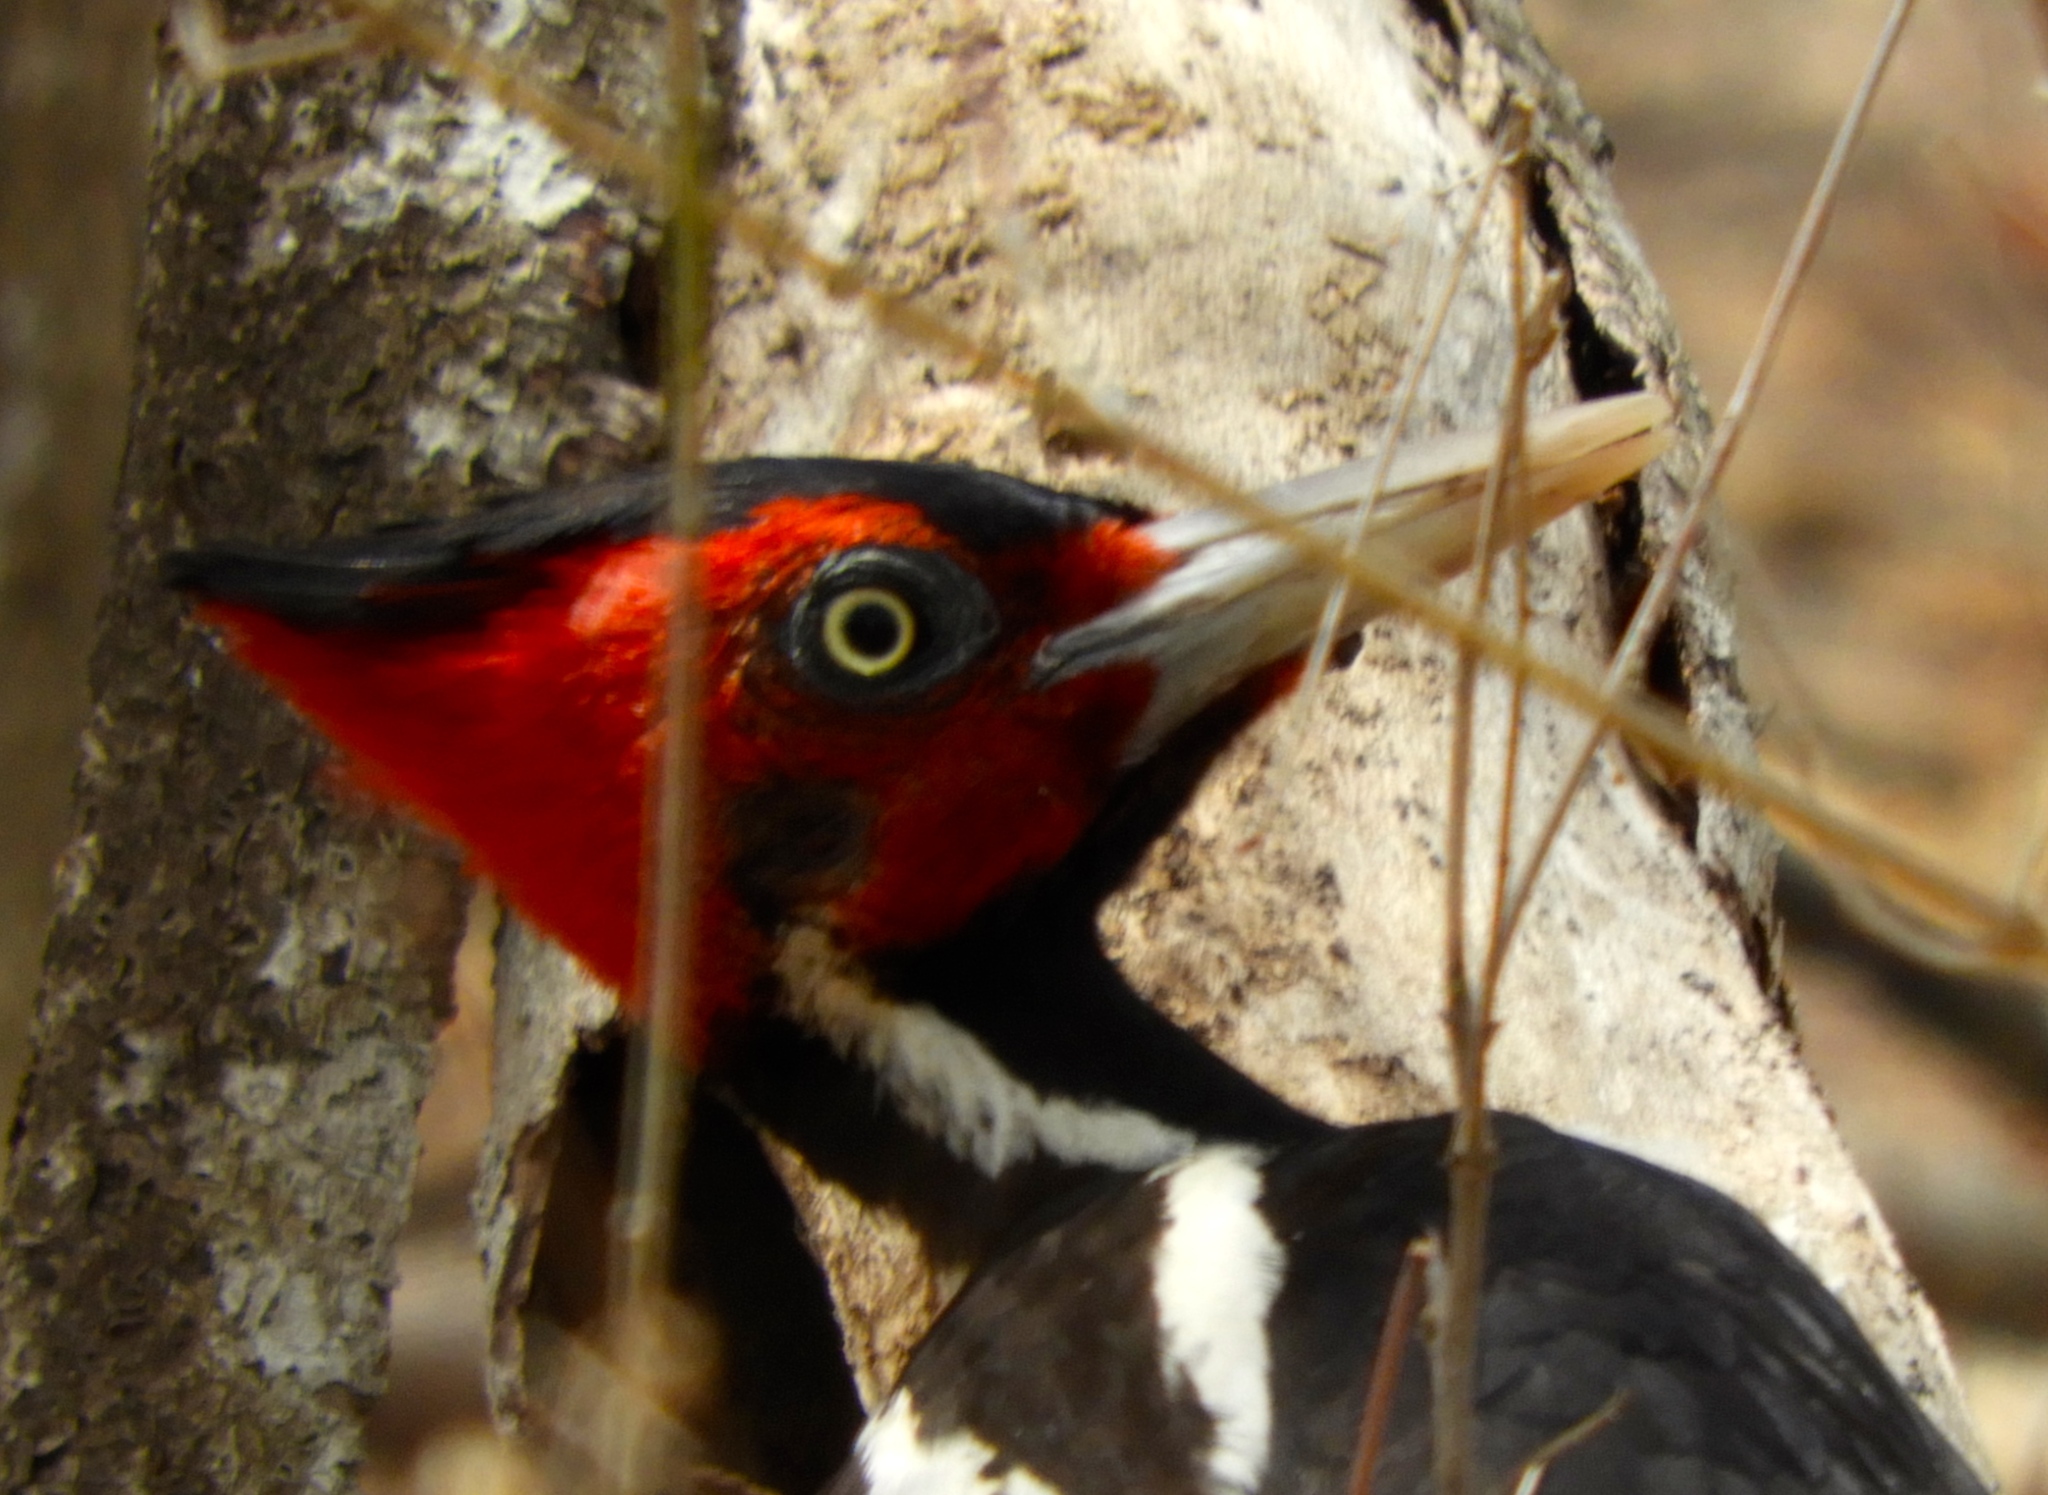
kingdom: Animalia
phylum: Chordata
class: Aves
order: Piciformes
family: Picidae
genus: Campephilus
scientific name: Campephilus guatemalensis
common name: Pale-billed woodpecker
